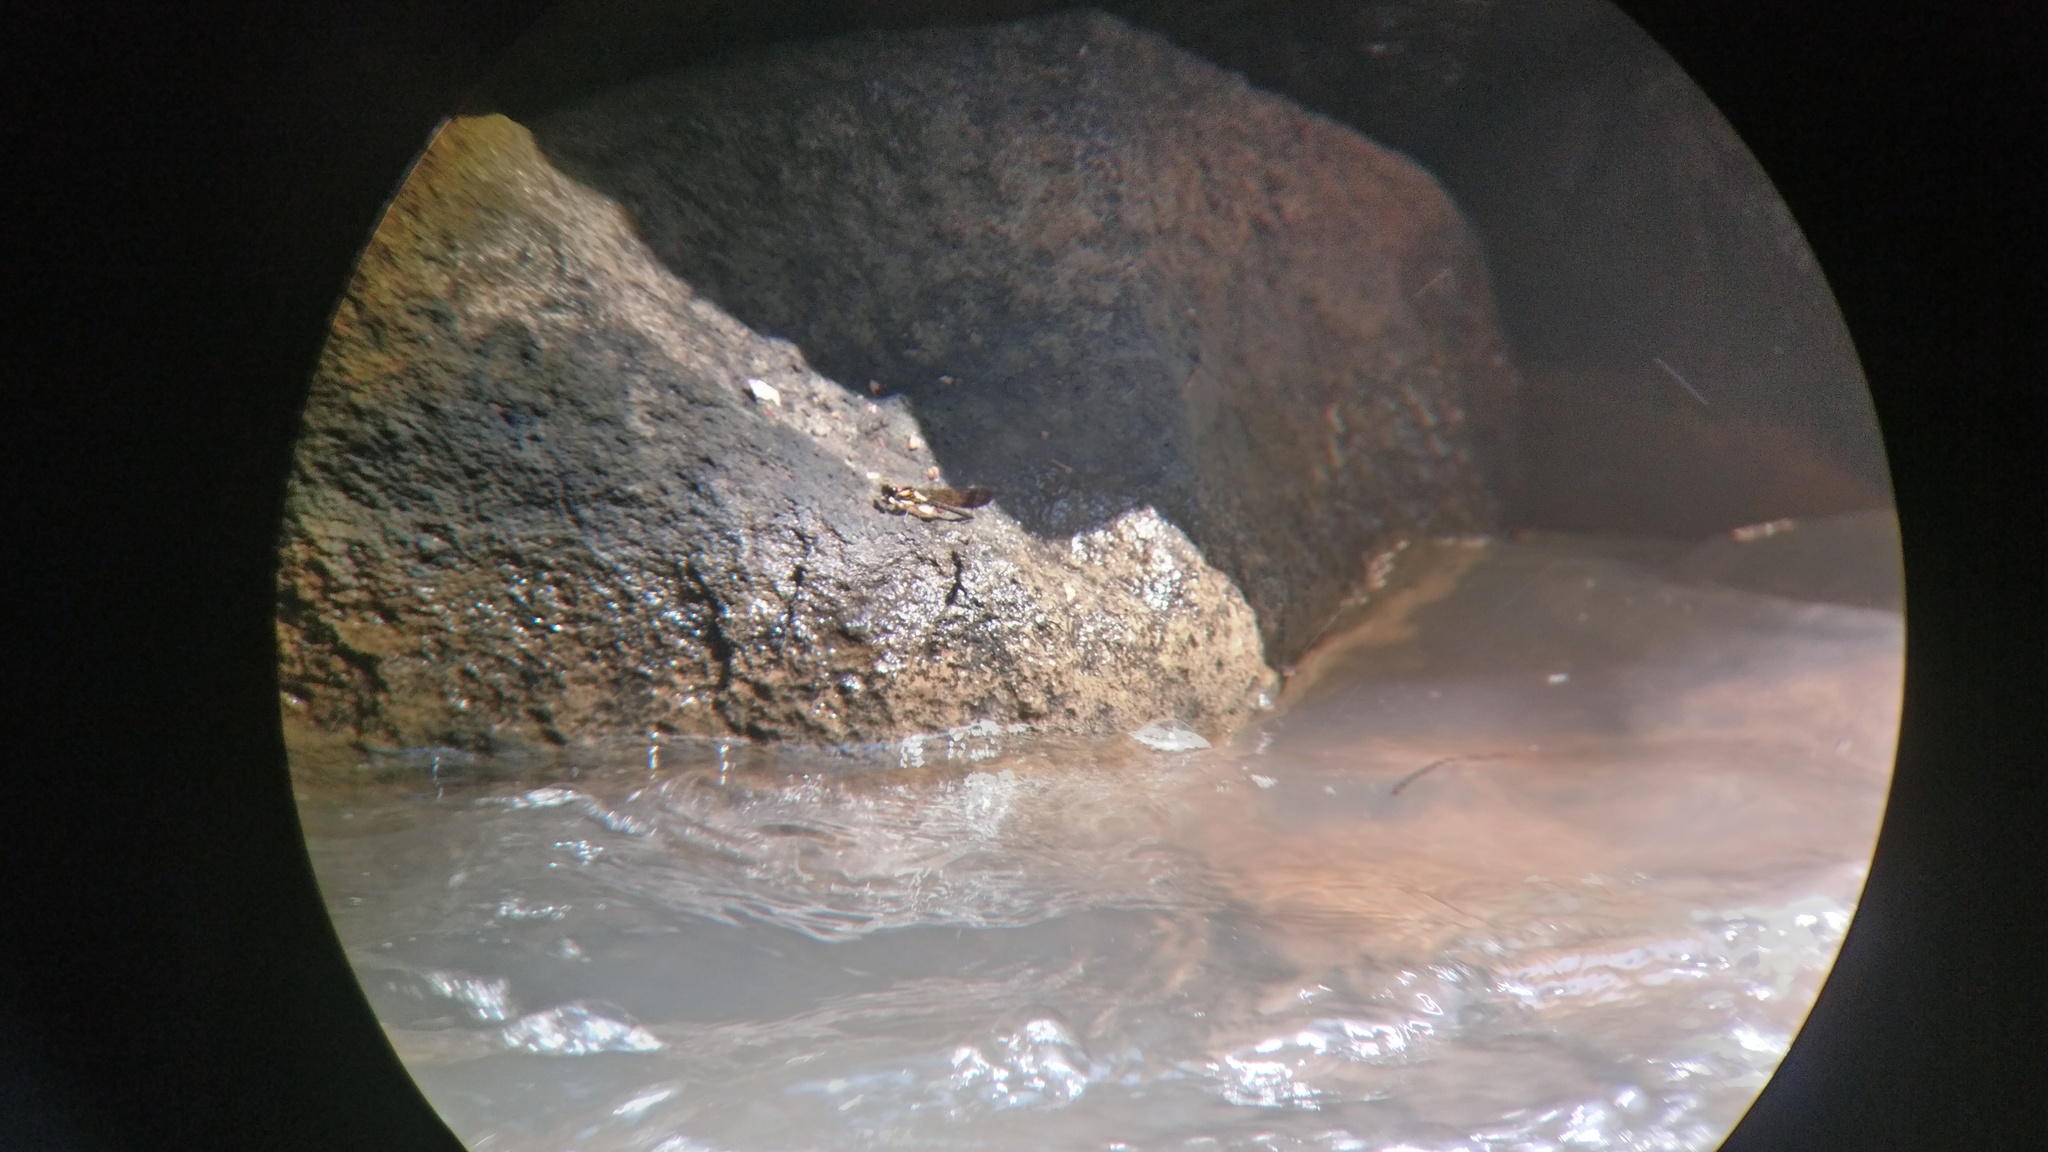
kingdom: Animalia
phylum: Arthropoda
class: Insecta
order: Odonata
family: Chlorocyphidae
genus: Heliocypha
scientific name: Heliocypha bisignata
